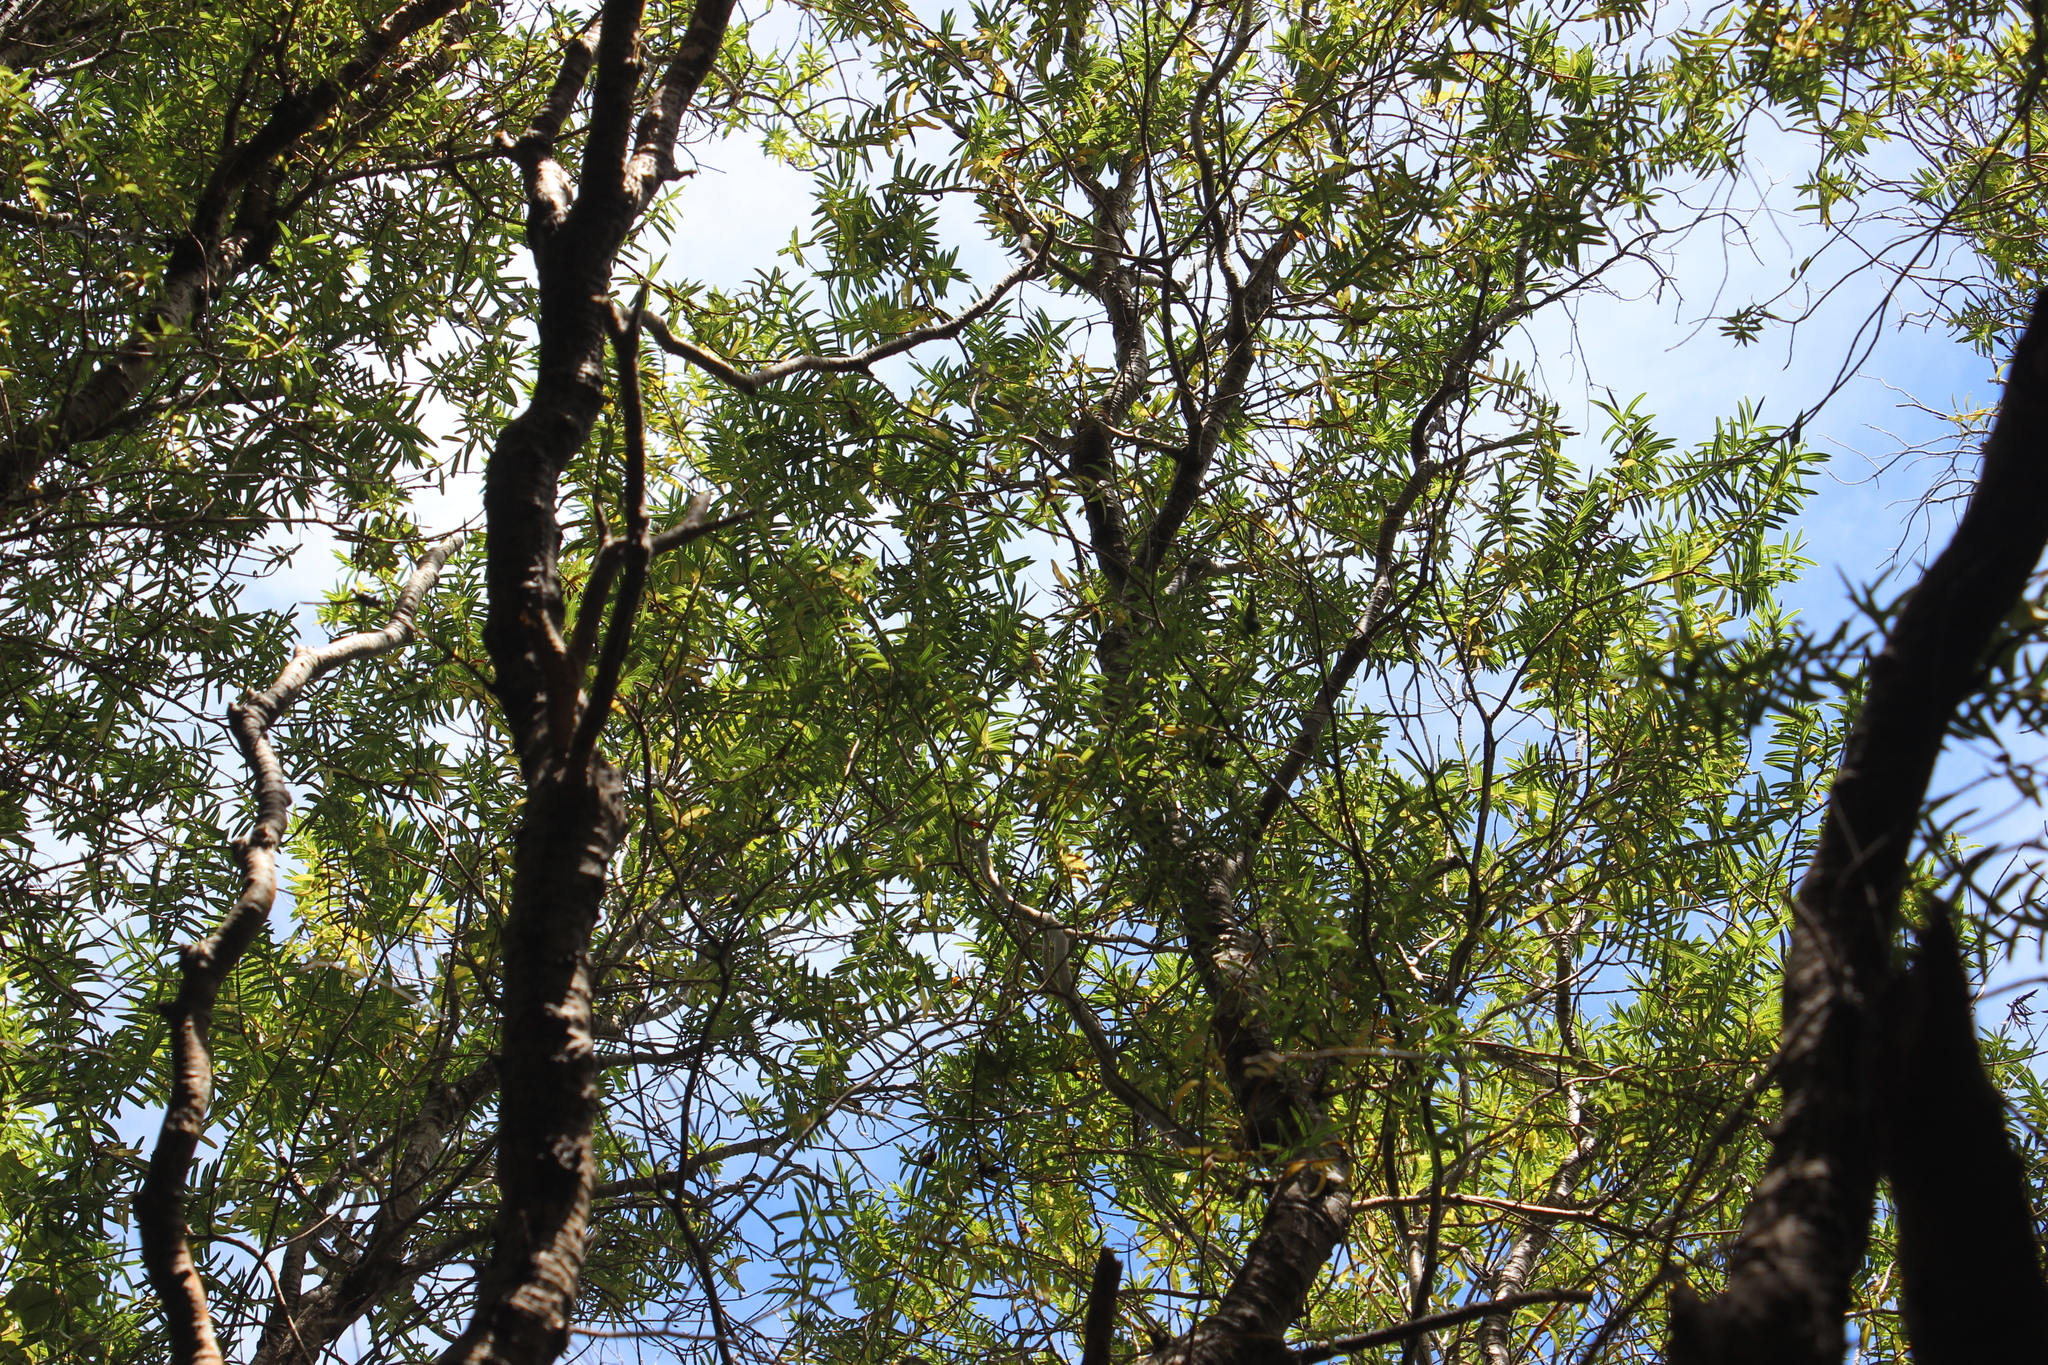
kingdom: Plantae
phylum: Tracheophyta
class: Magnoliopsida
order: Lamiales
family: Plantaginaceae
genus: Veronica
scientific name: Veronica parviflora
